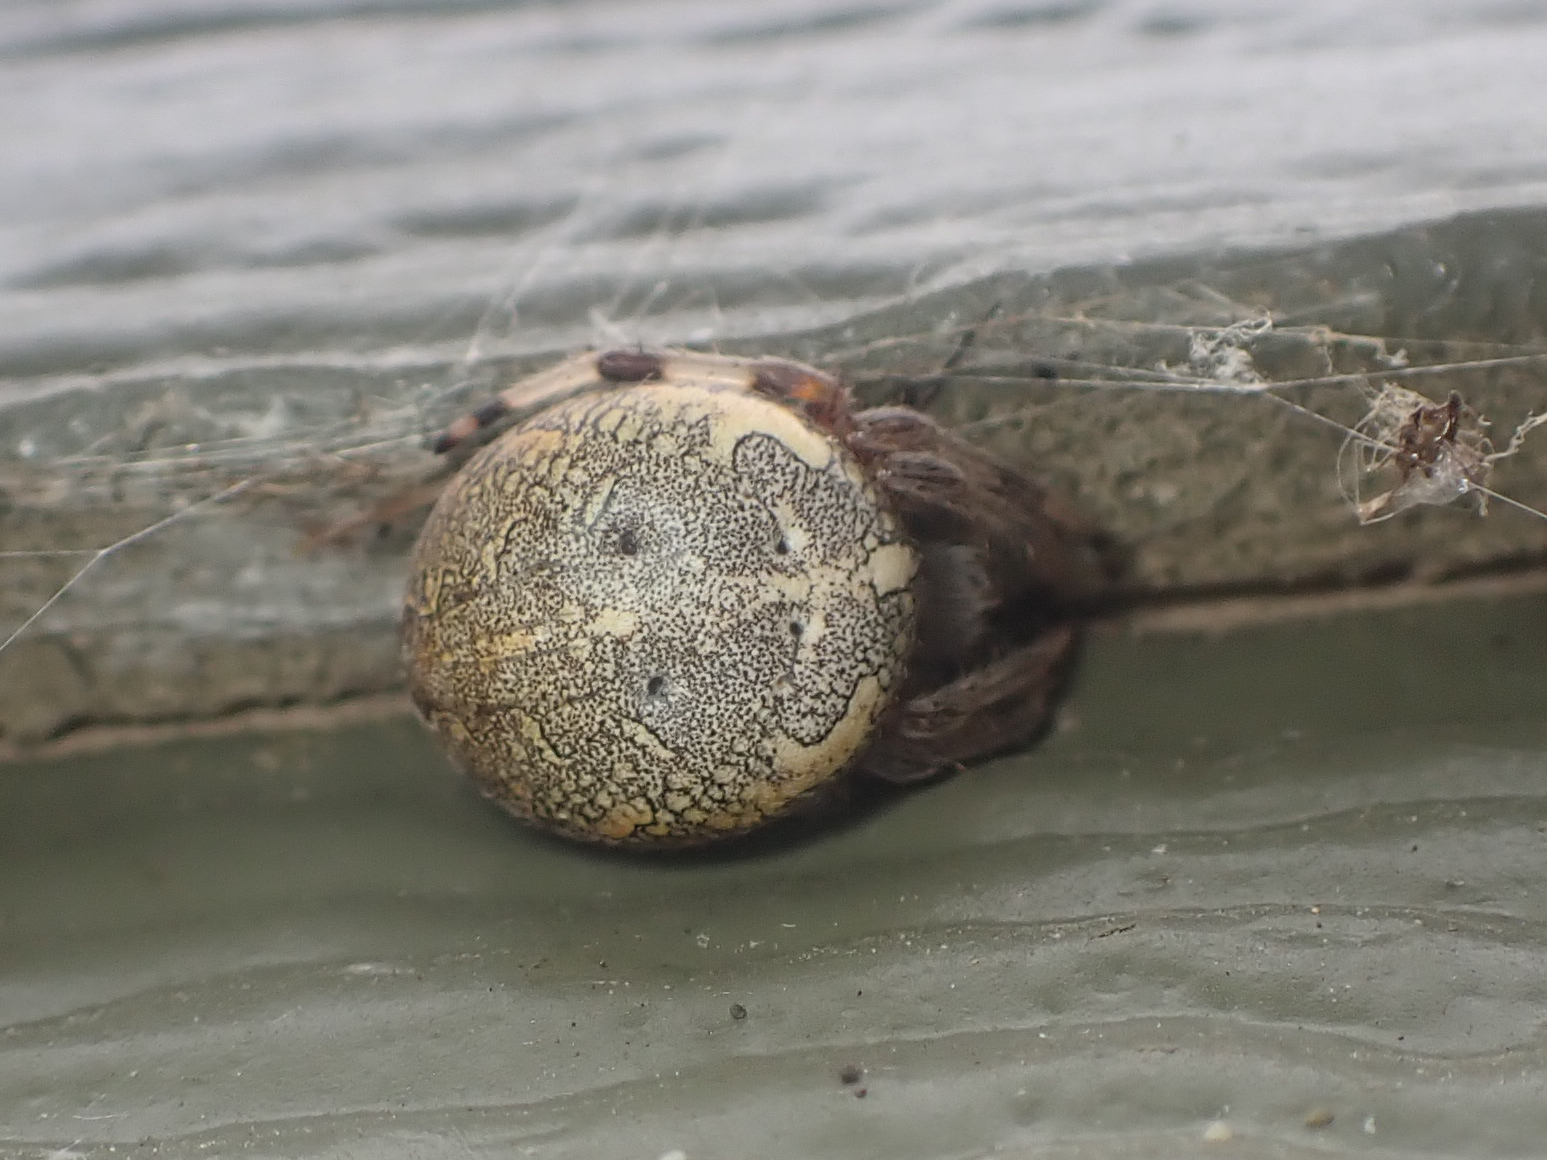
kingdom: Animalia
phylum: Arthropoda
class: Arachnida
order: Araneae
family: Araneidae
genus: Araneus
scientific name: Araneus marmoreus
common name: Marbled orbweaver
